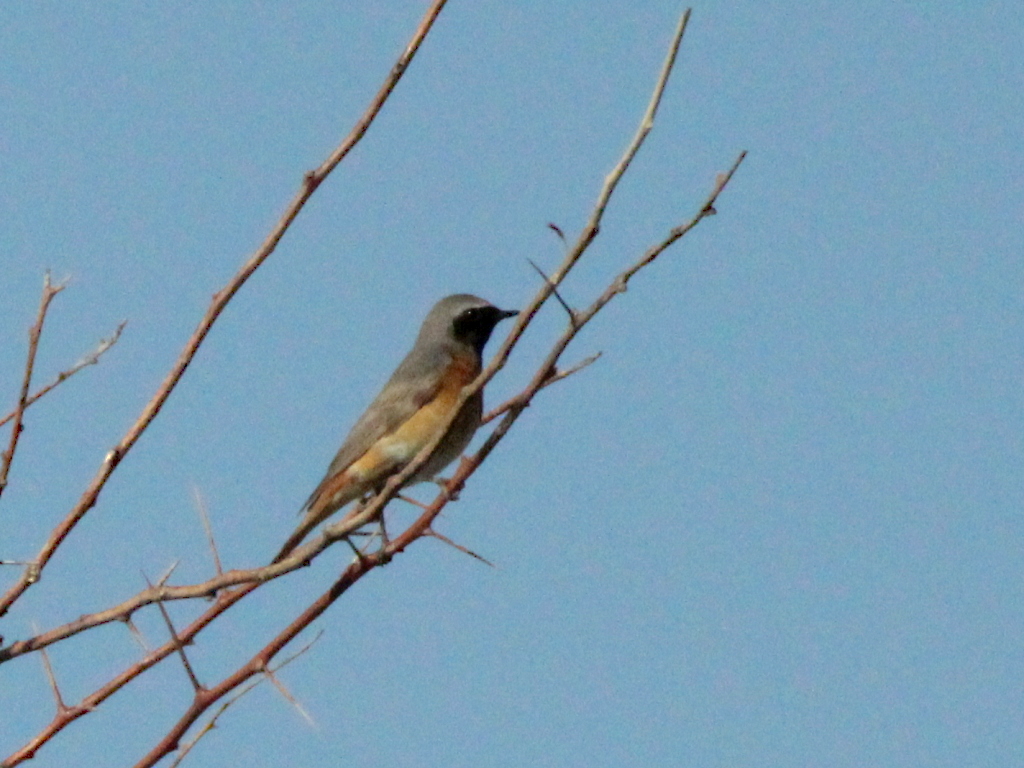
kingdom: Animalia
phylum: Chordata
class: Aves
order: Passeriformes
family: Muscicapidae
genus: Phoenicurus
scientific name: Phoenicurus phoenicurus
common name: Common redstart
